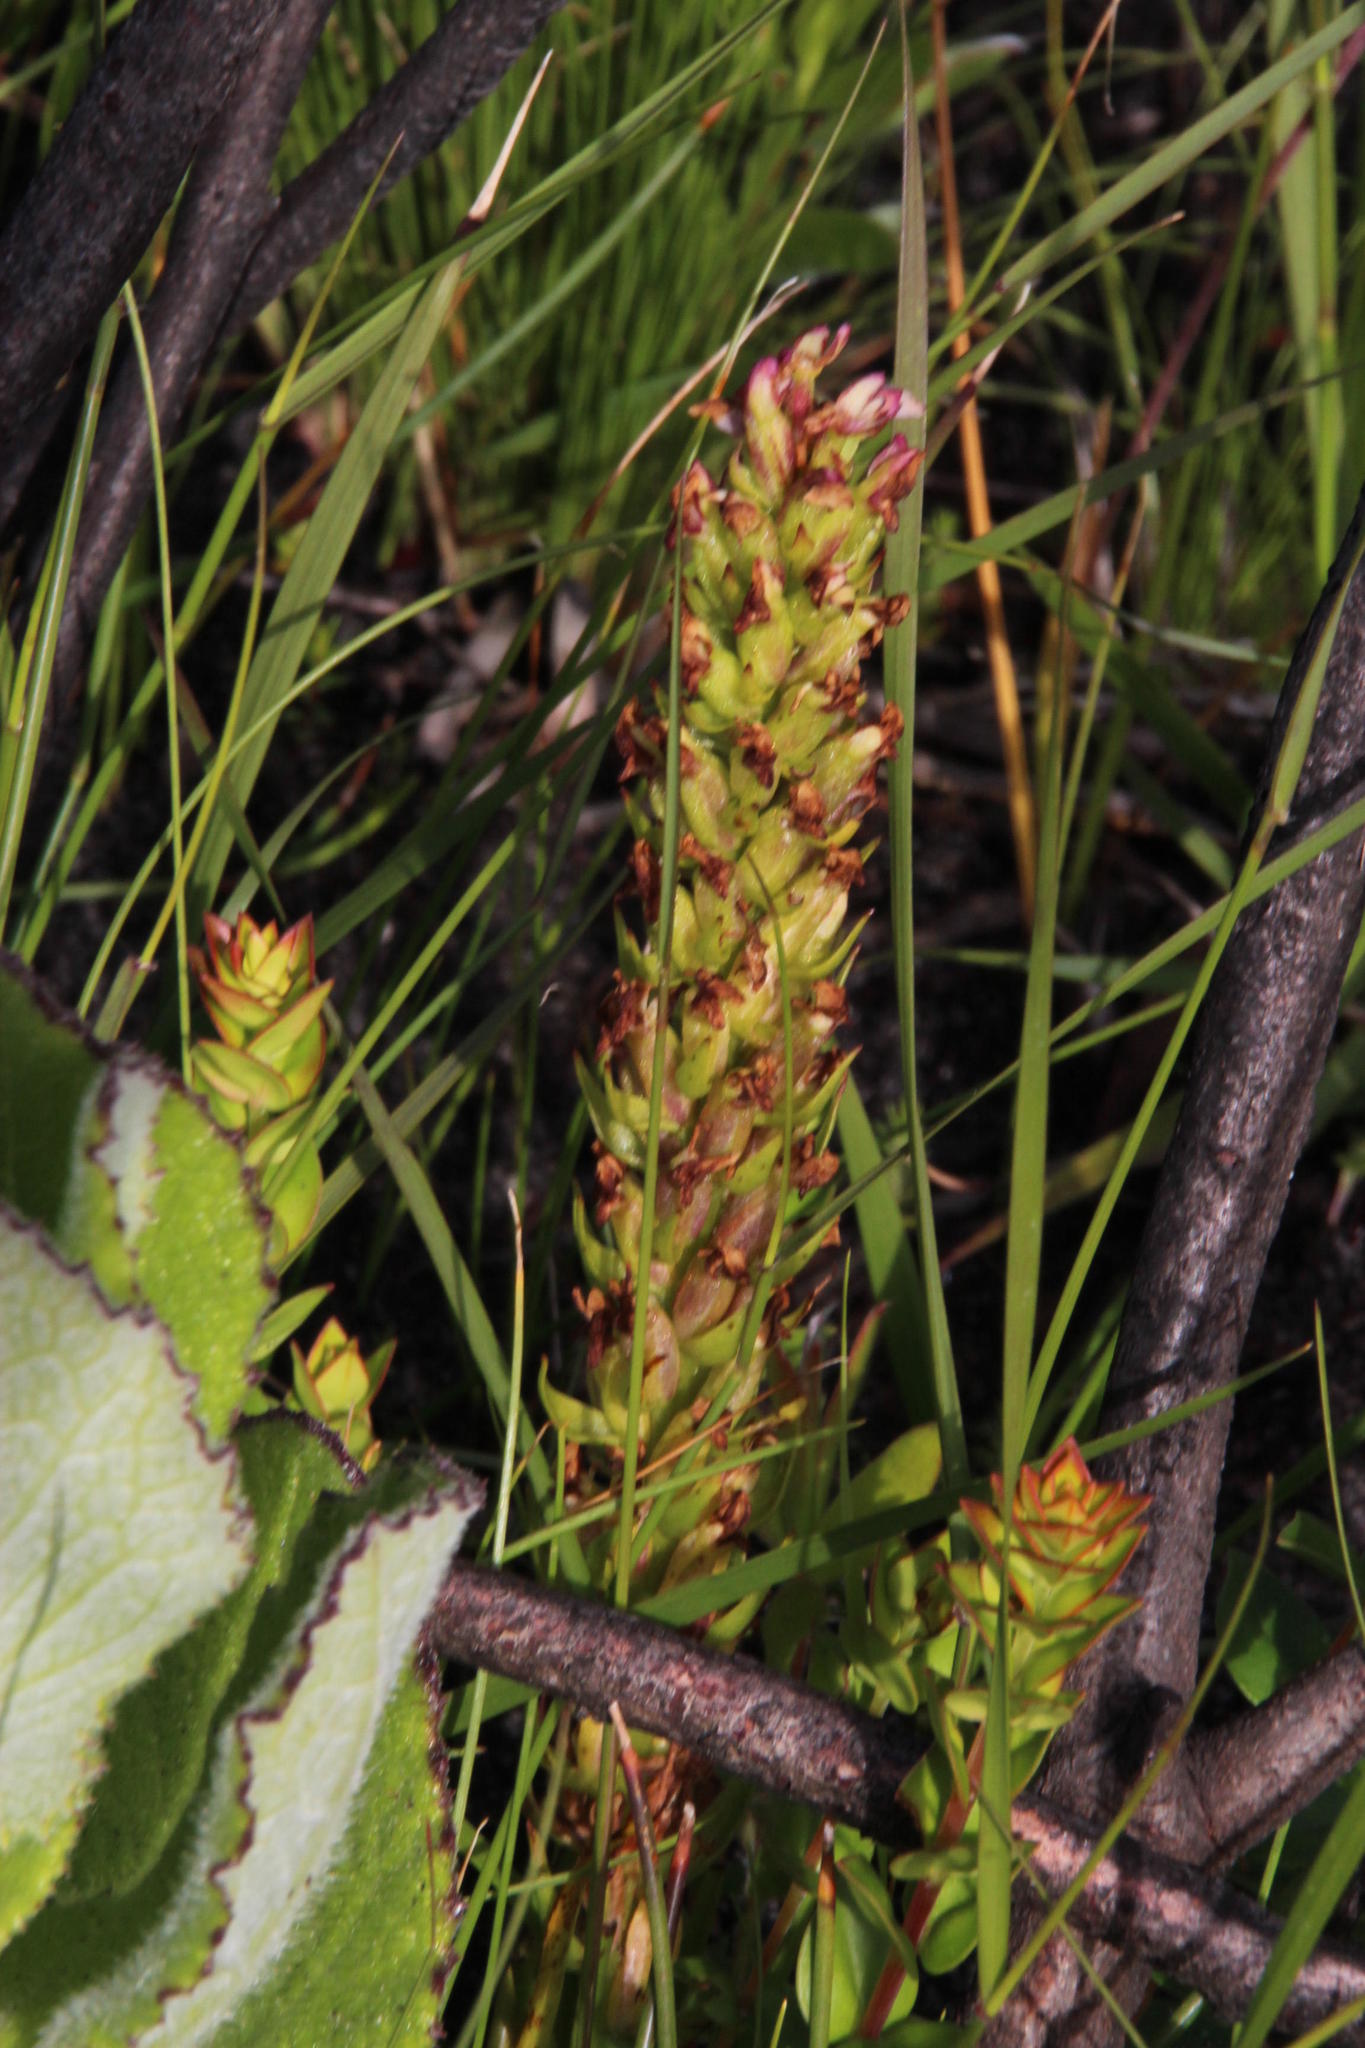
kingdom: Plantae
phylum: Tracheophyta
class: Liliopsida
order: Asparagales
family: Orchidaceae
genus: Disa
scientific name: Disa obtusa
